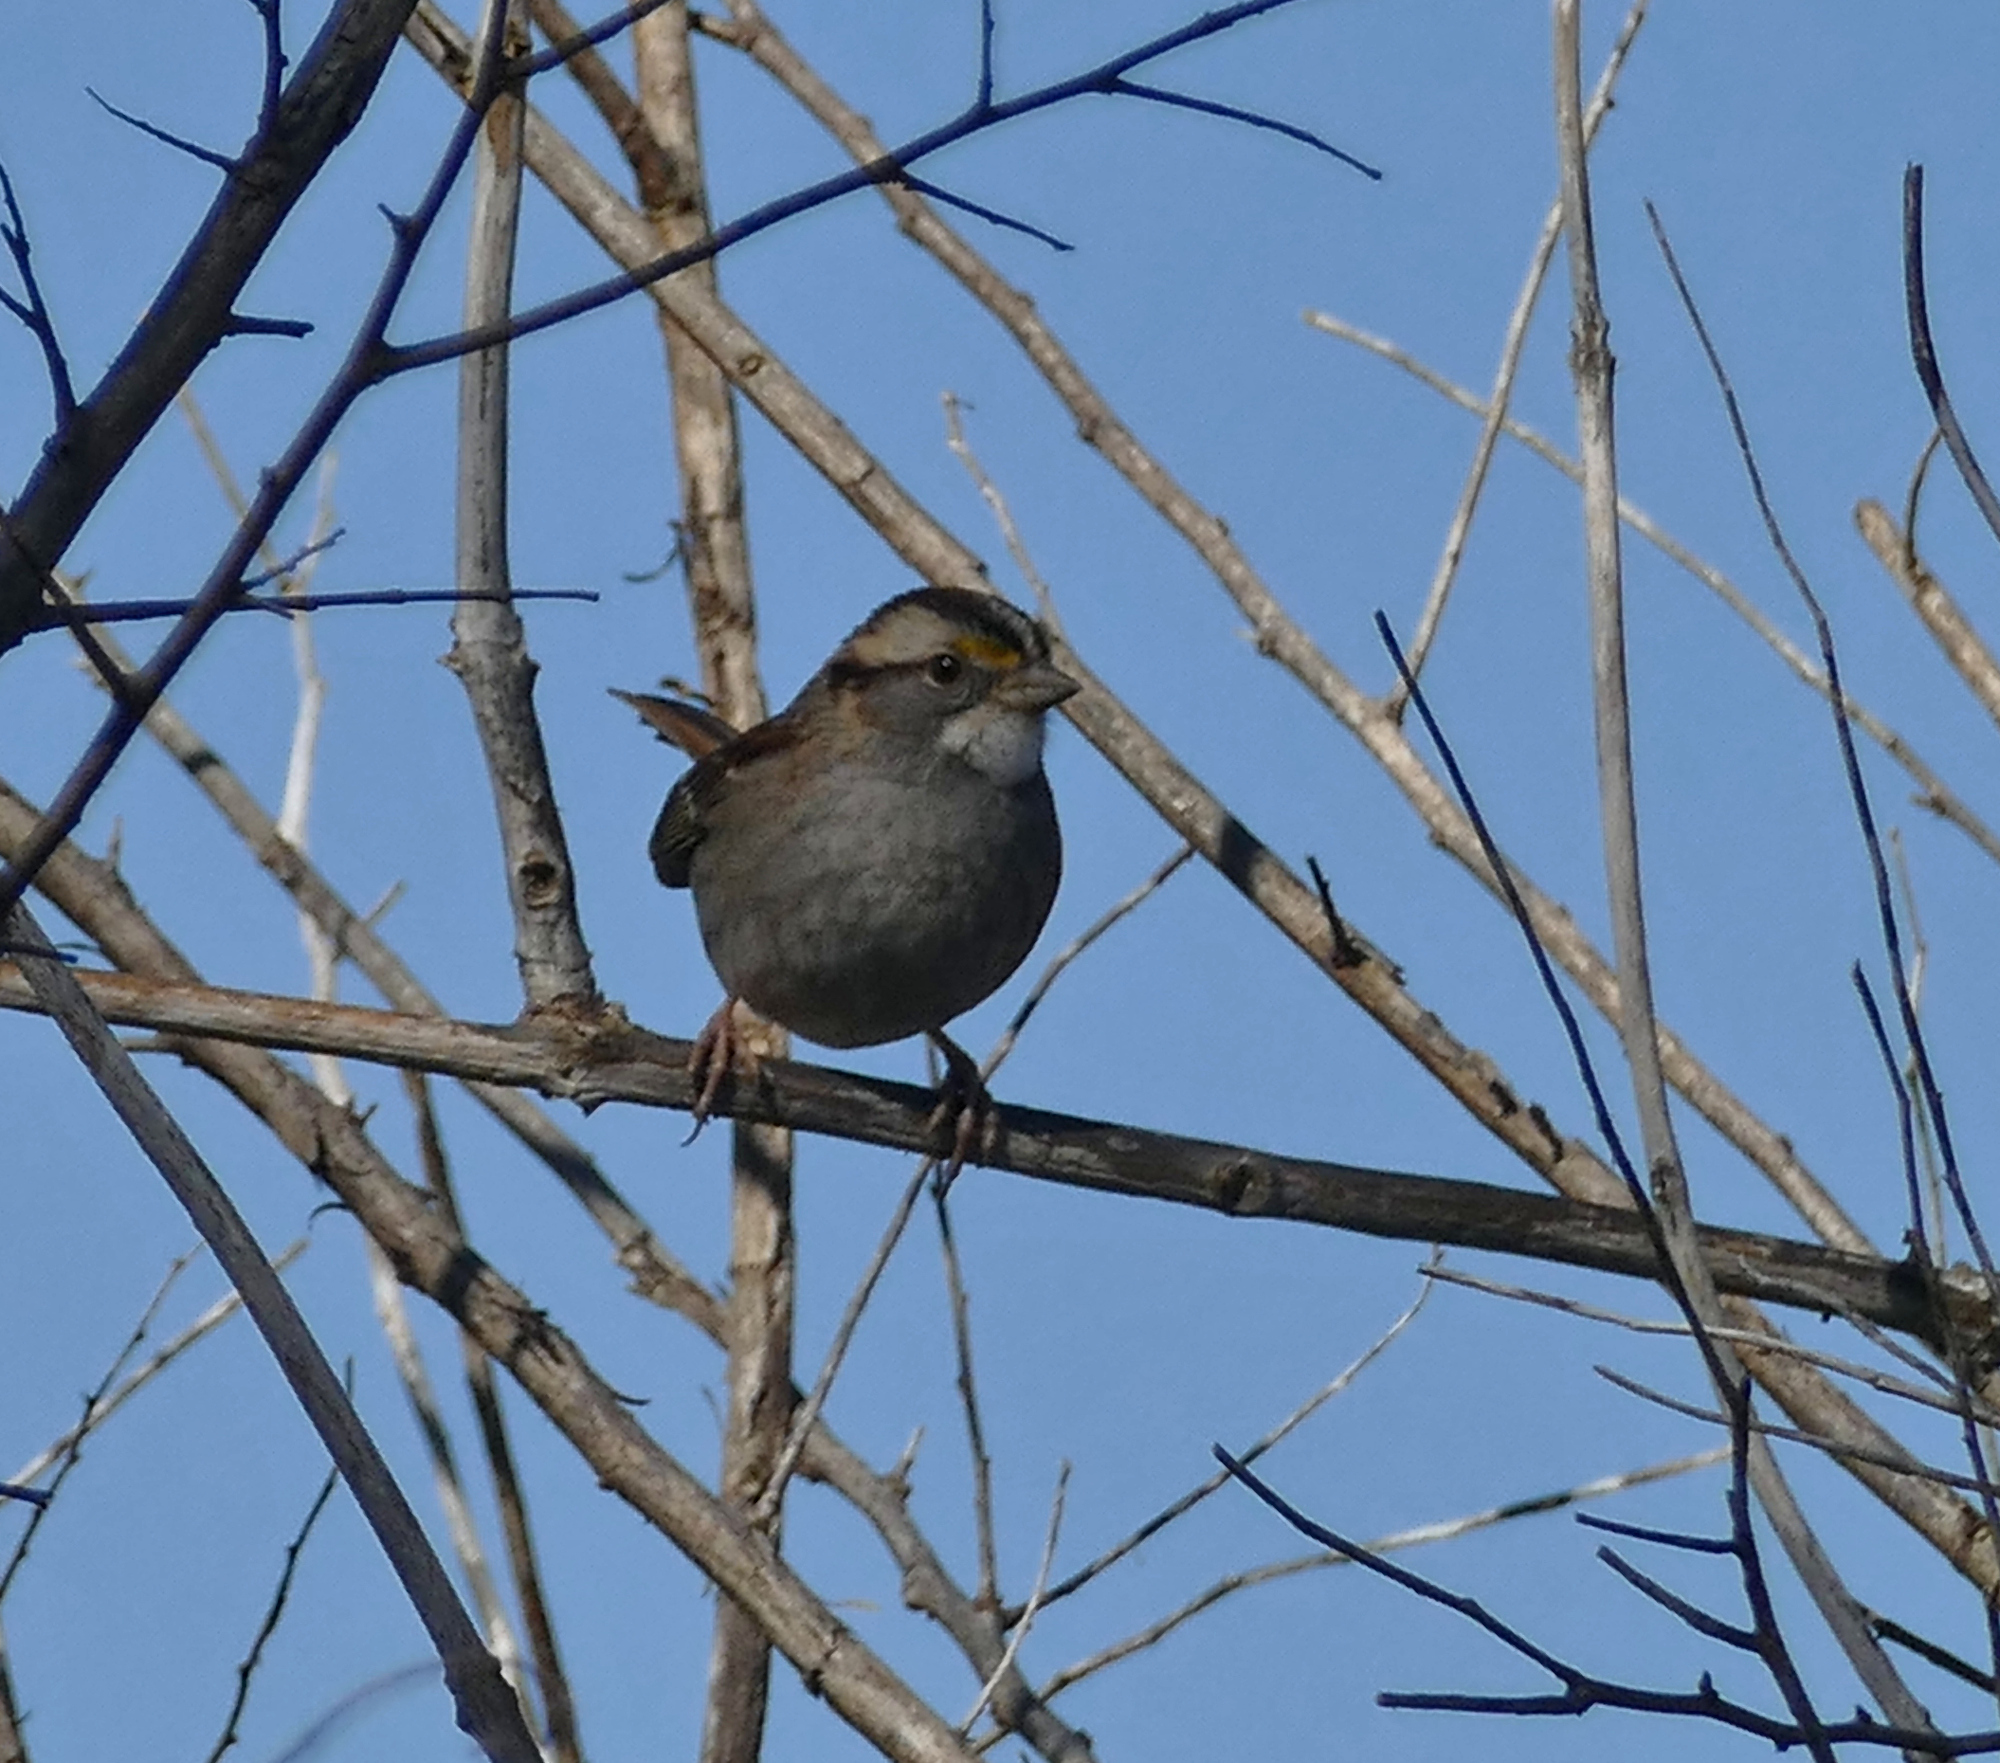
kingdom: Animalia
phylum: Chordata
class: Aves
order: Passeriformes
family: Passerellidae
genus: Zonotrichia
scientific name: Zonotrichia albicollis
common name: White-throated sparrow
